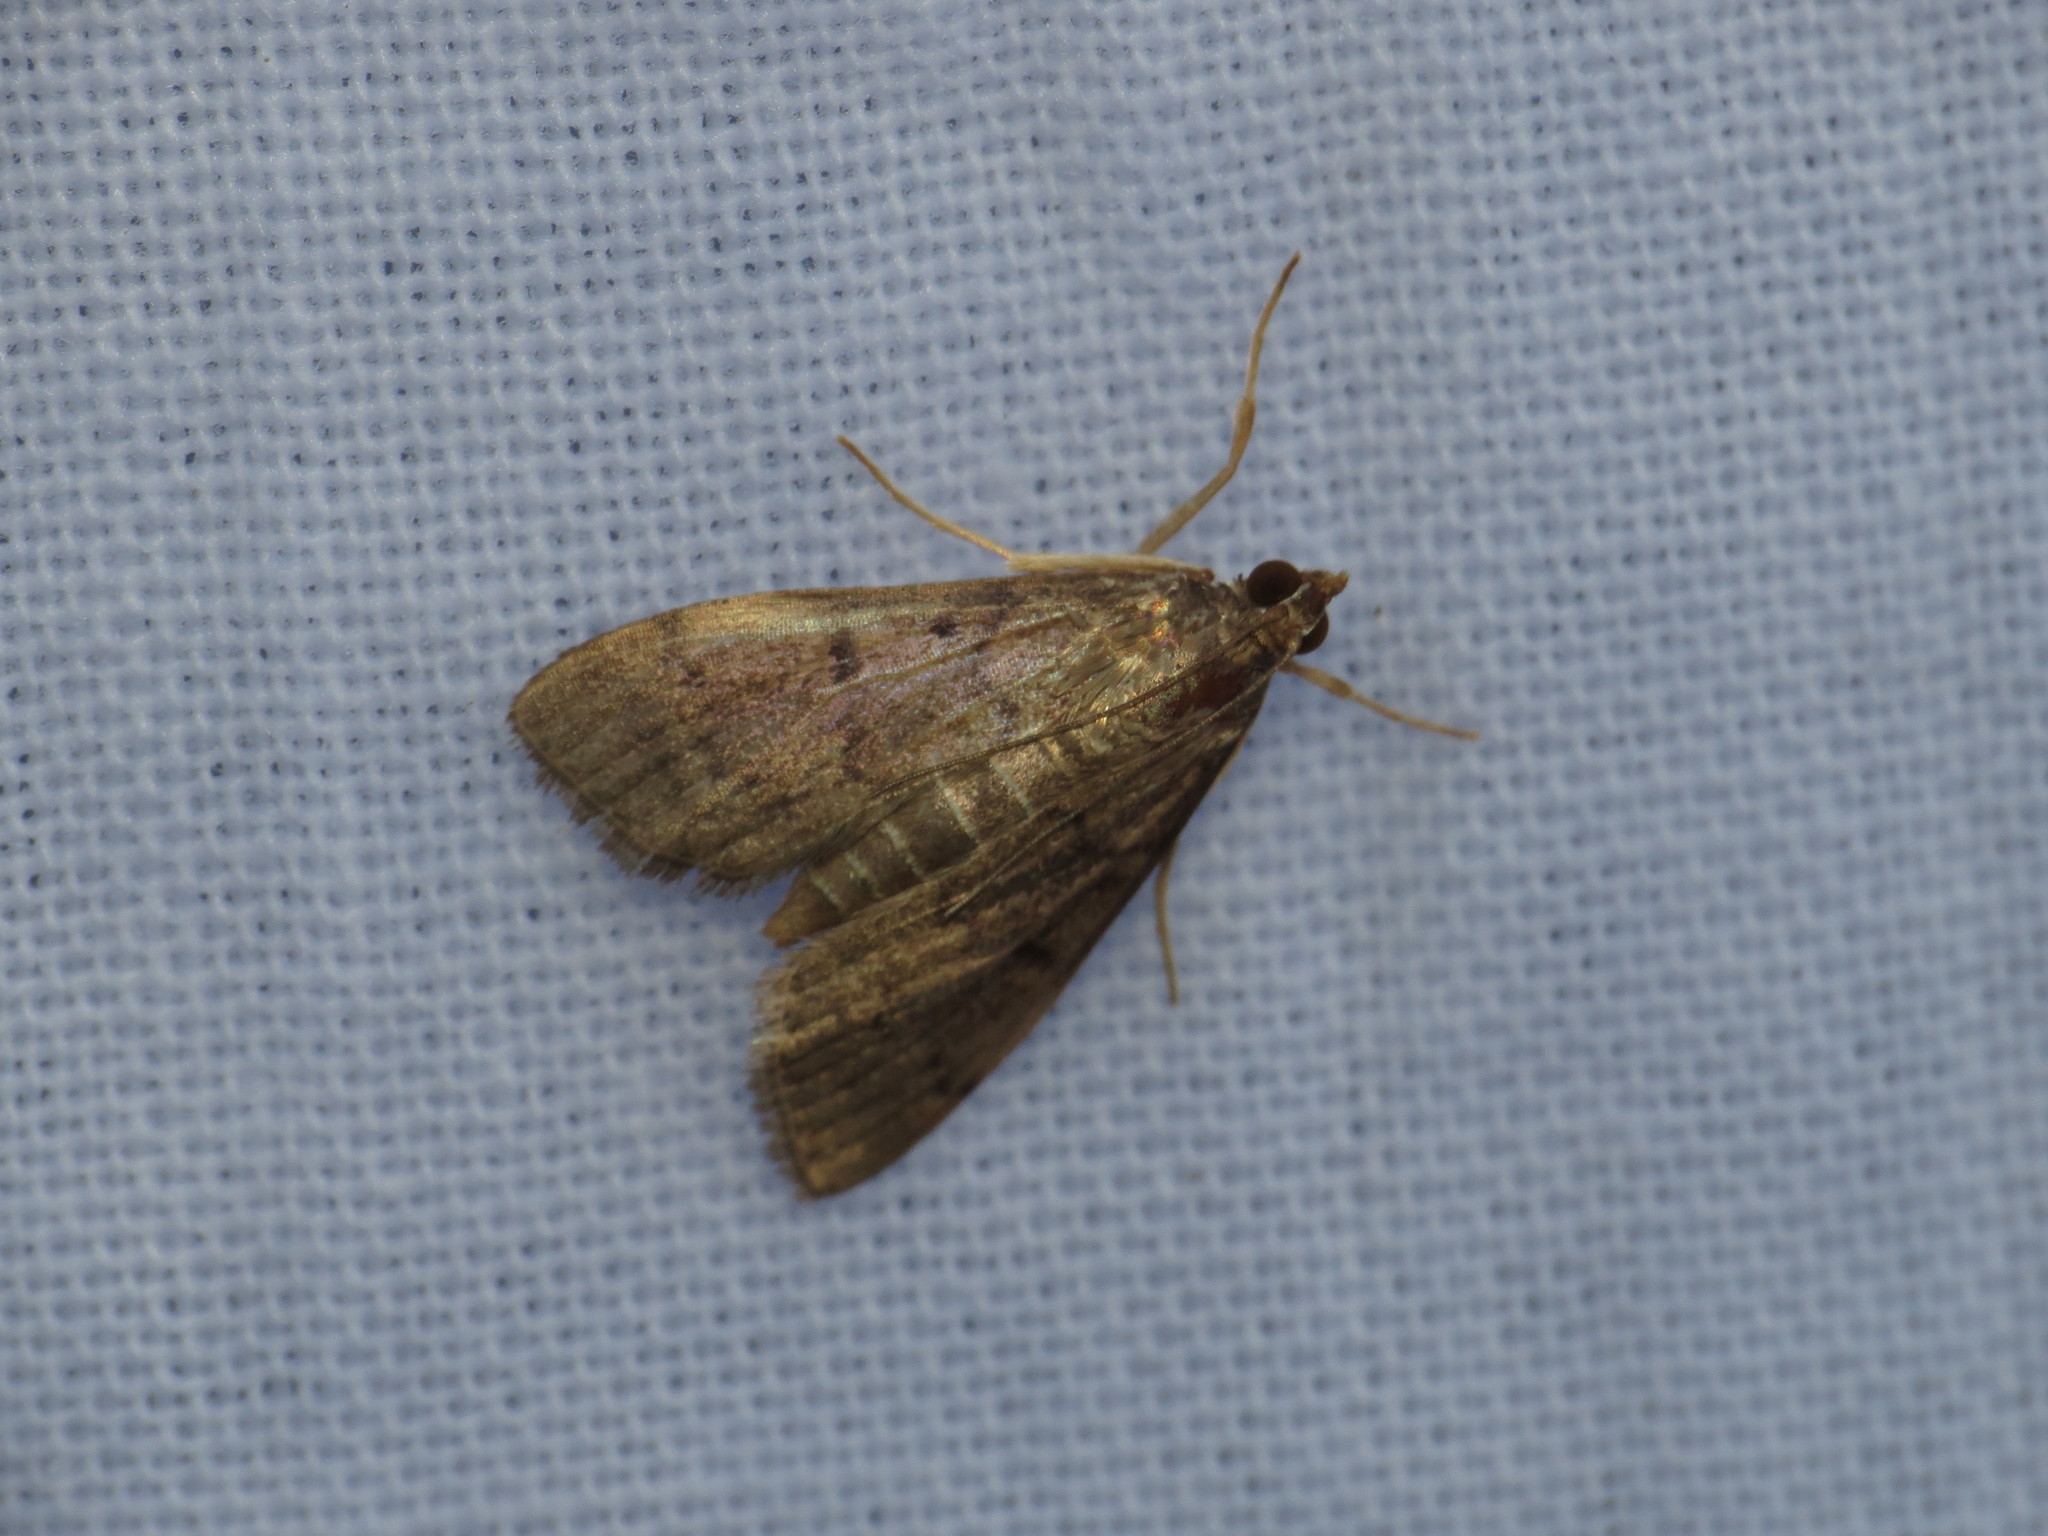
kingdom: Animalia
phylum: Arthropoda
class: Insecta
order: Lepidoptera
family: Crambidae
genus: Herpetogramma
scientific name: Herpetogramma phaeopteralis
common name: Dusky herpetogramma moth
